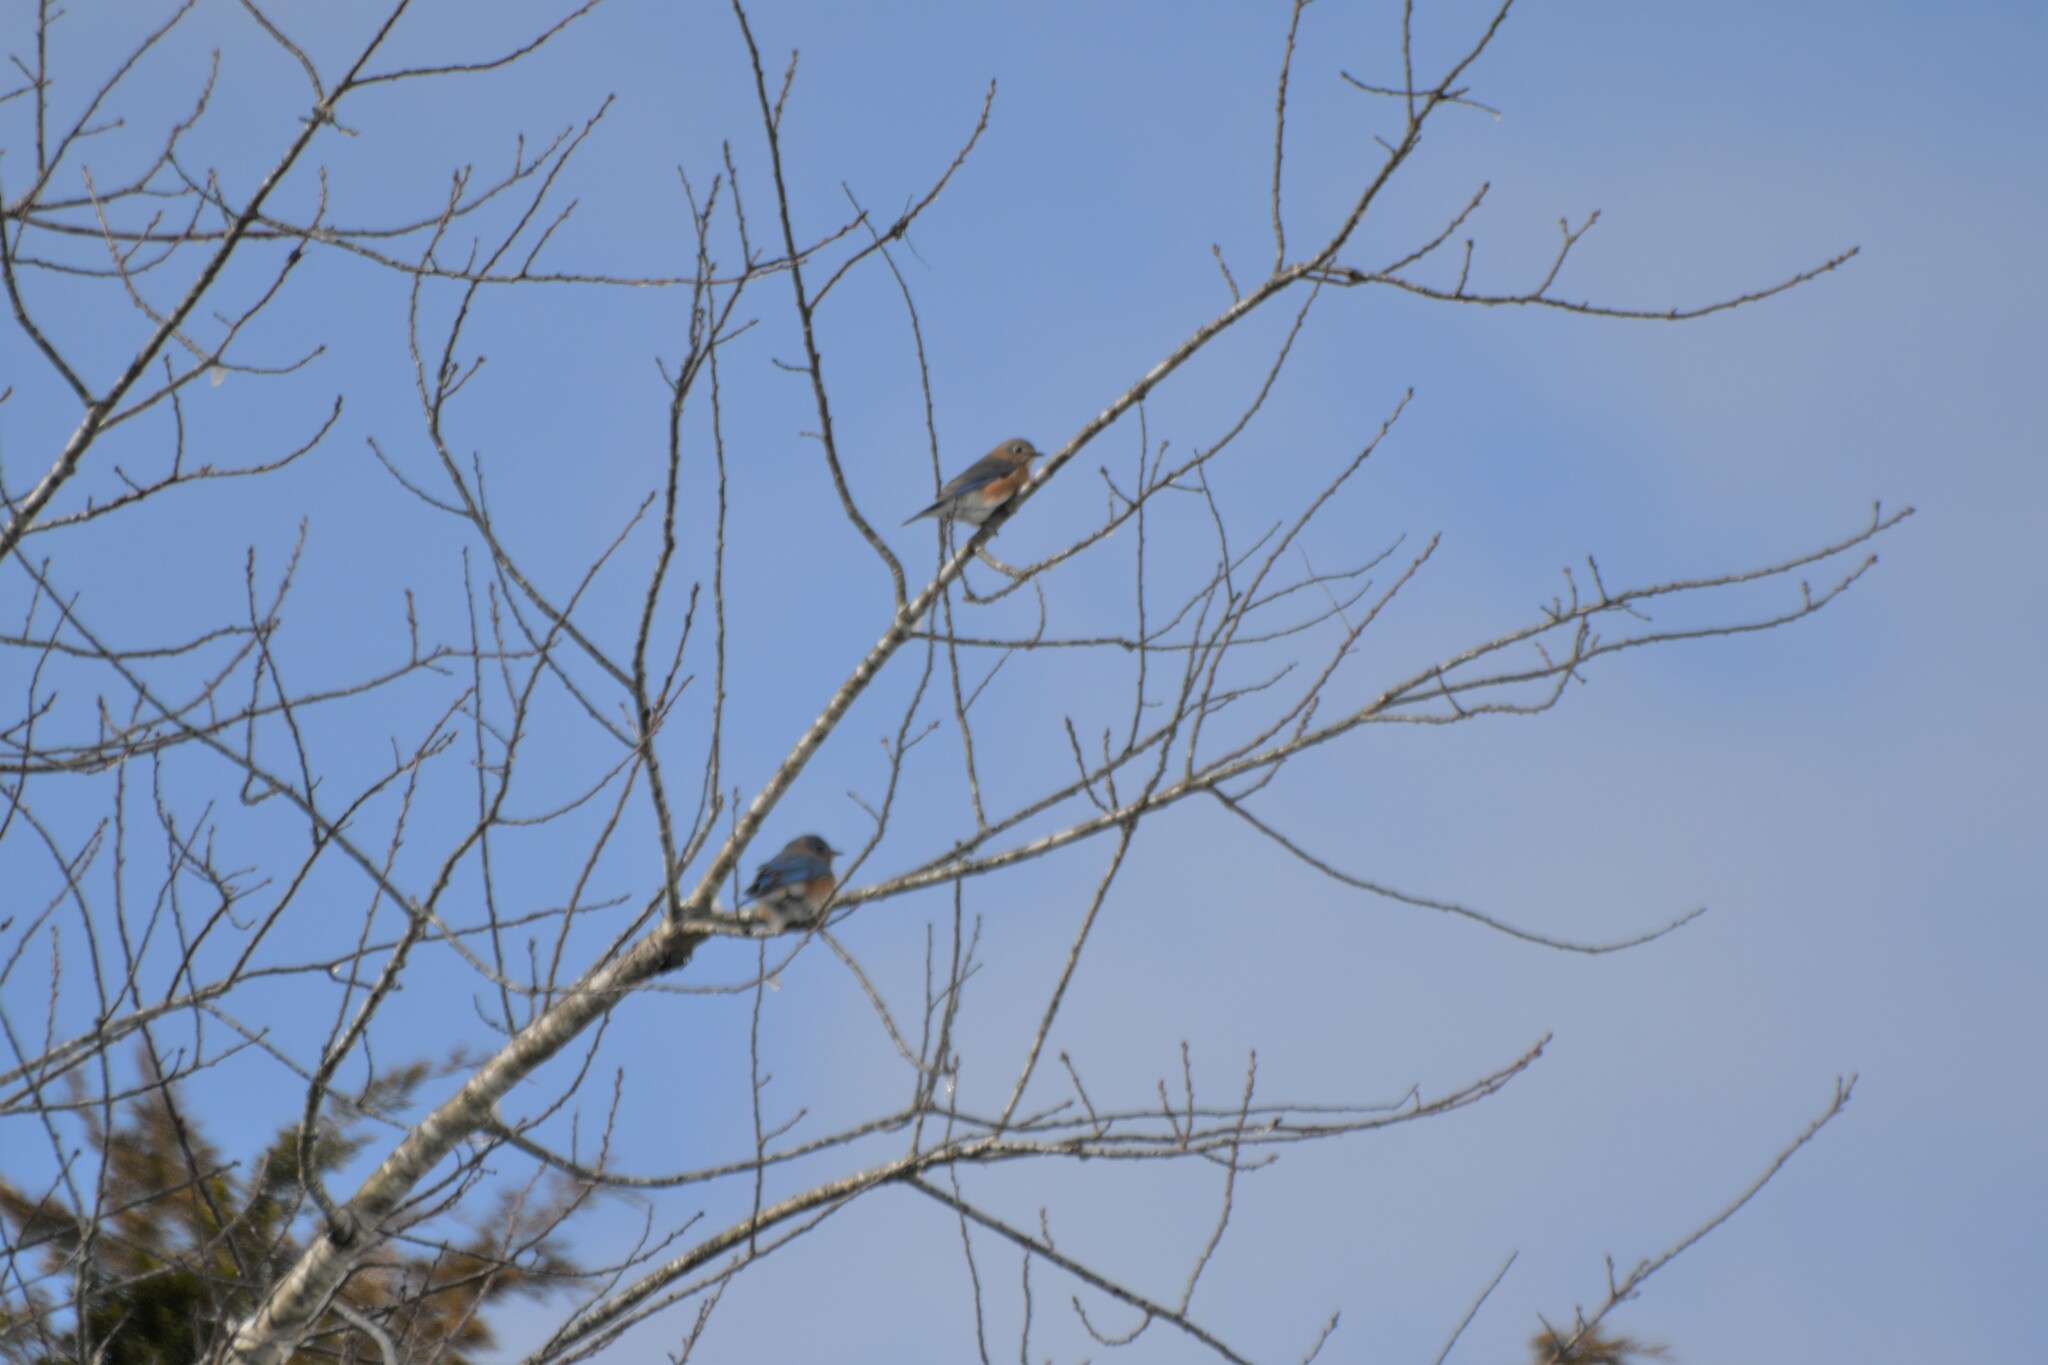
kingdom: Animalia
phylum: Chordata
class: Aves
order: Passeriformes
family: Turdidae
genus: Sialia
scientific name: Sialia sialis
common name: Eastern bluebird
